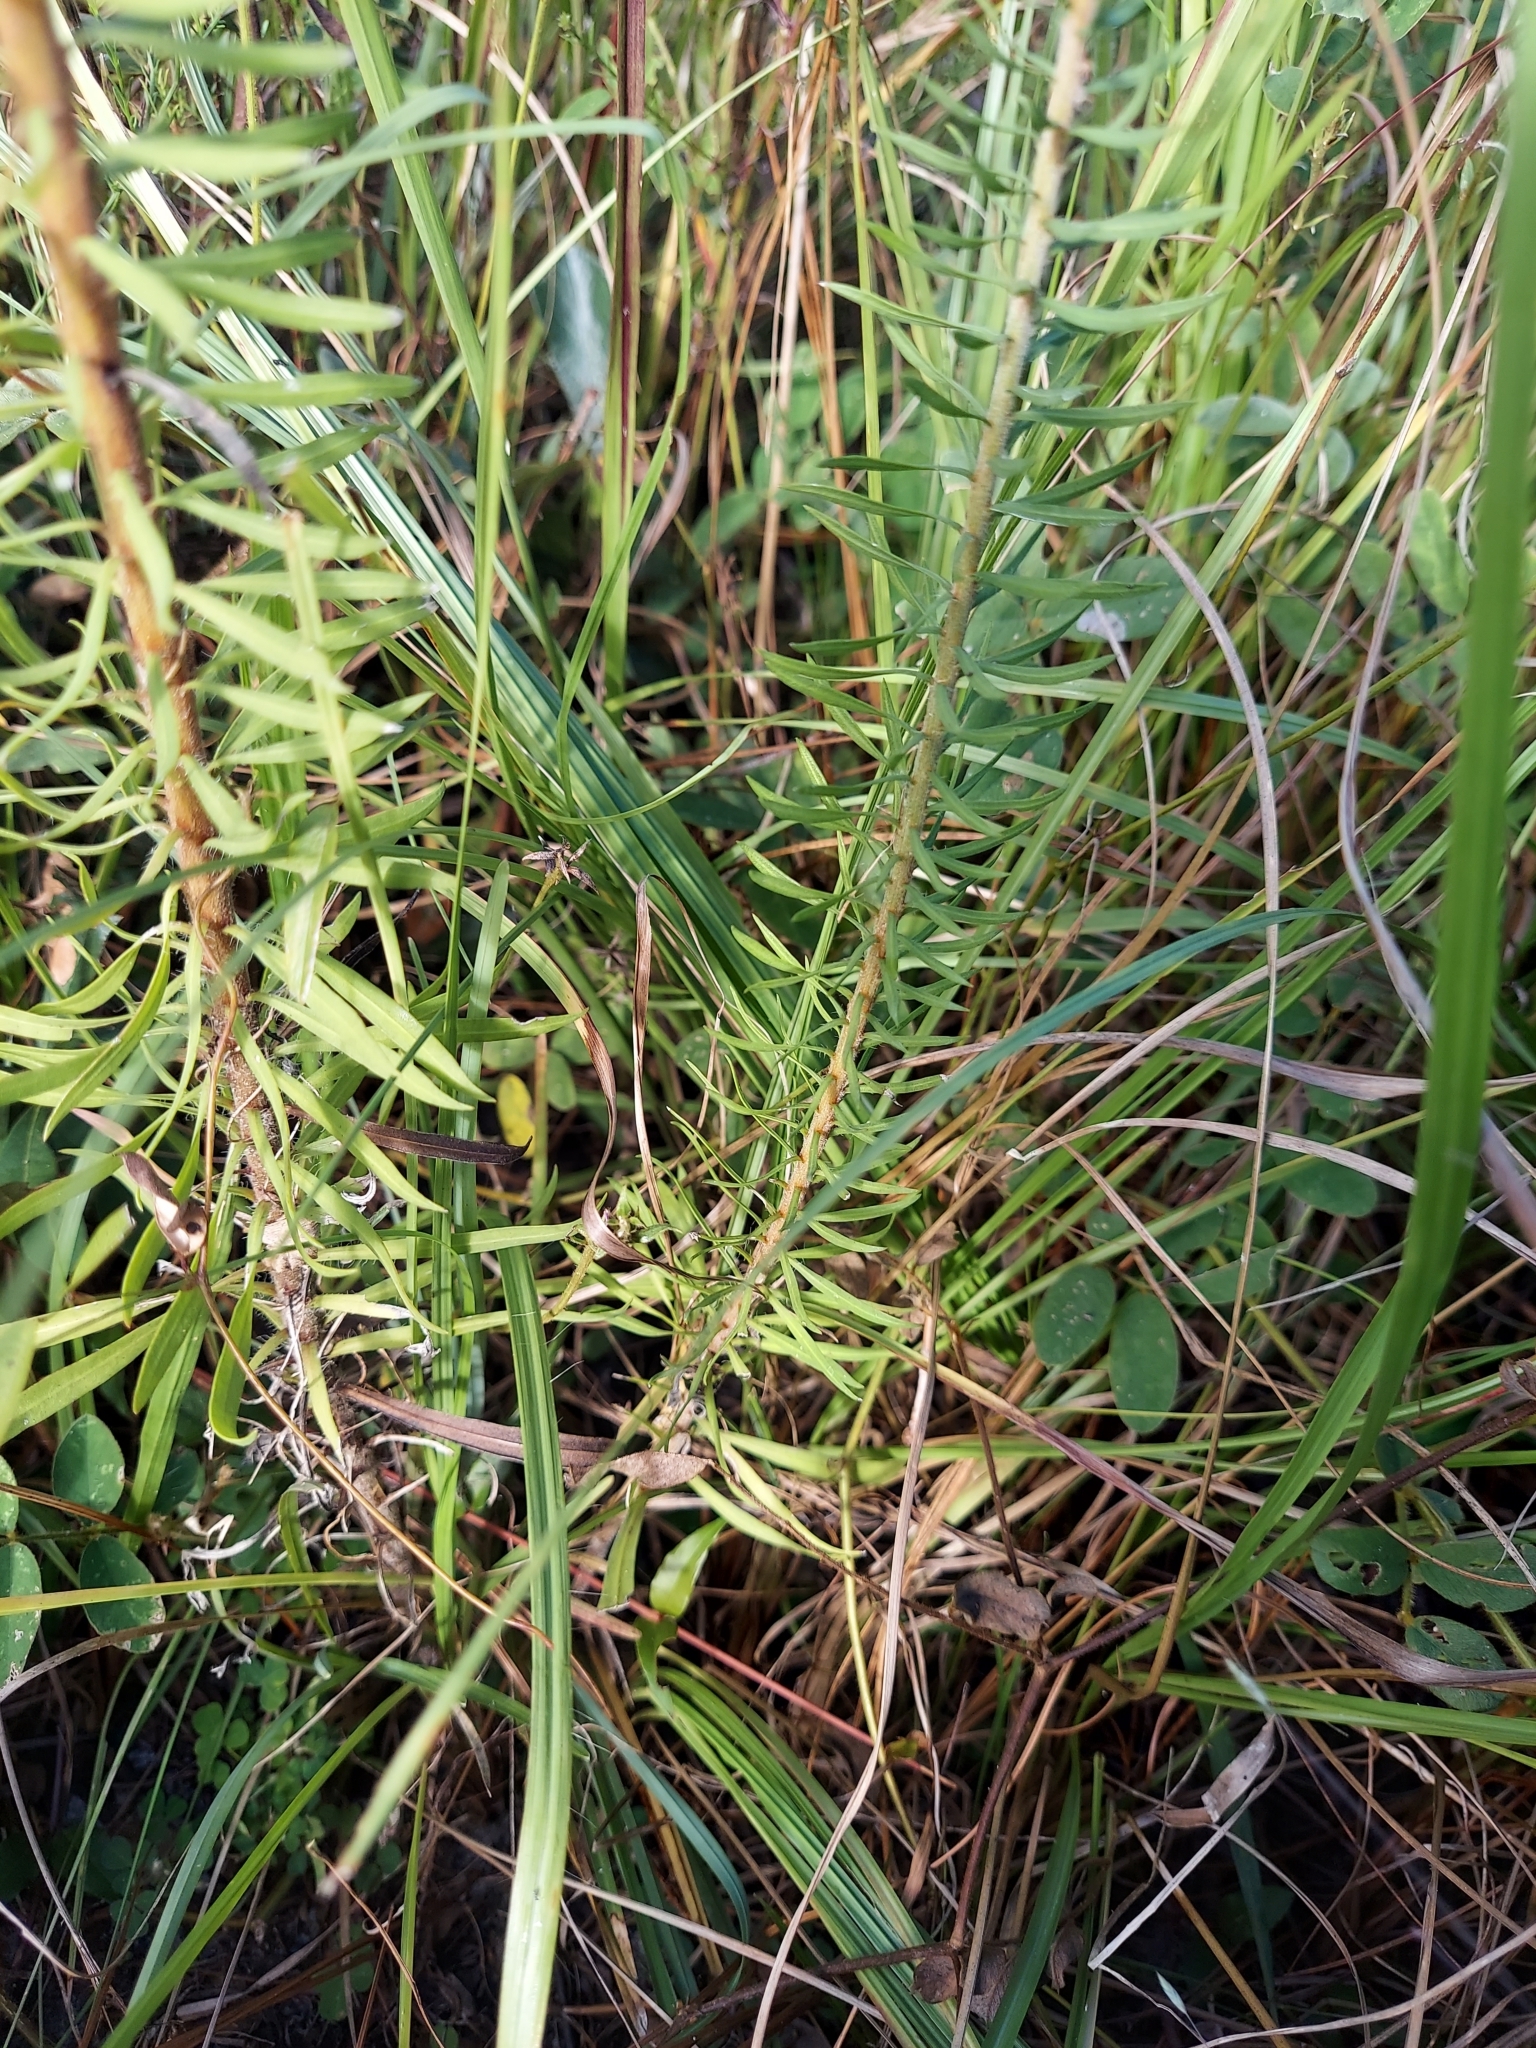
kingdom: Plantae
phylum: Tracheophyta
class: Magnoliopsida
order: Asterales
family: Asteraceae
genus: Liatris
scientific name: Liatris gracilis
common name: Slender gayfeather
